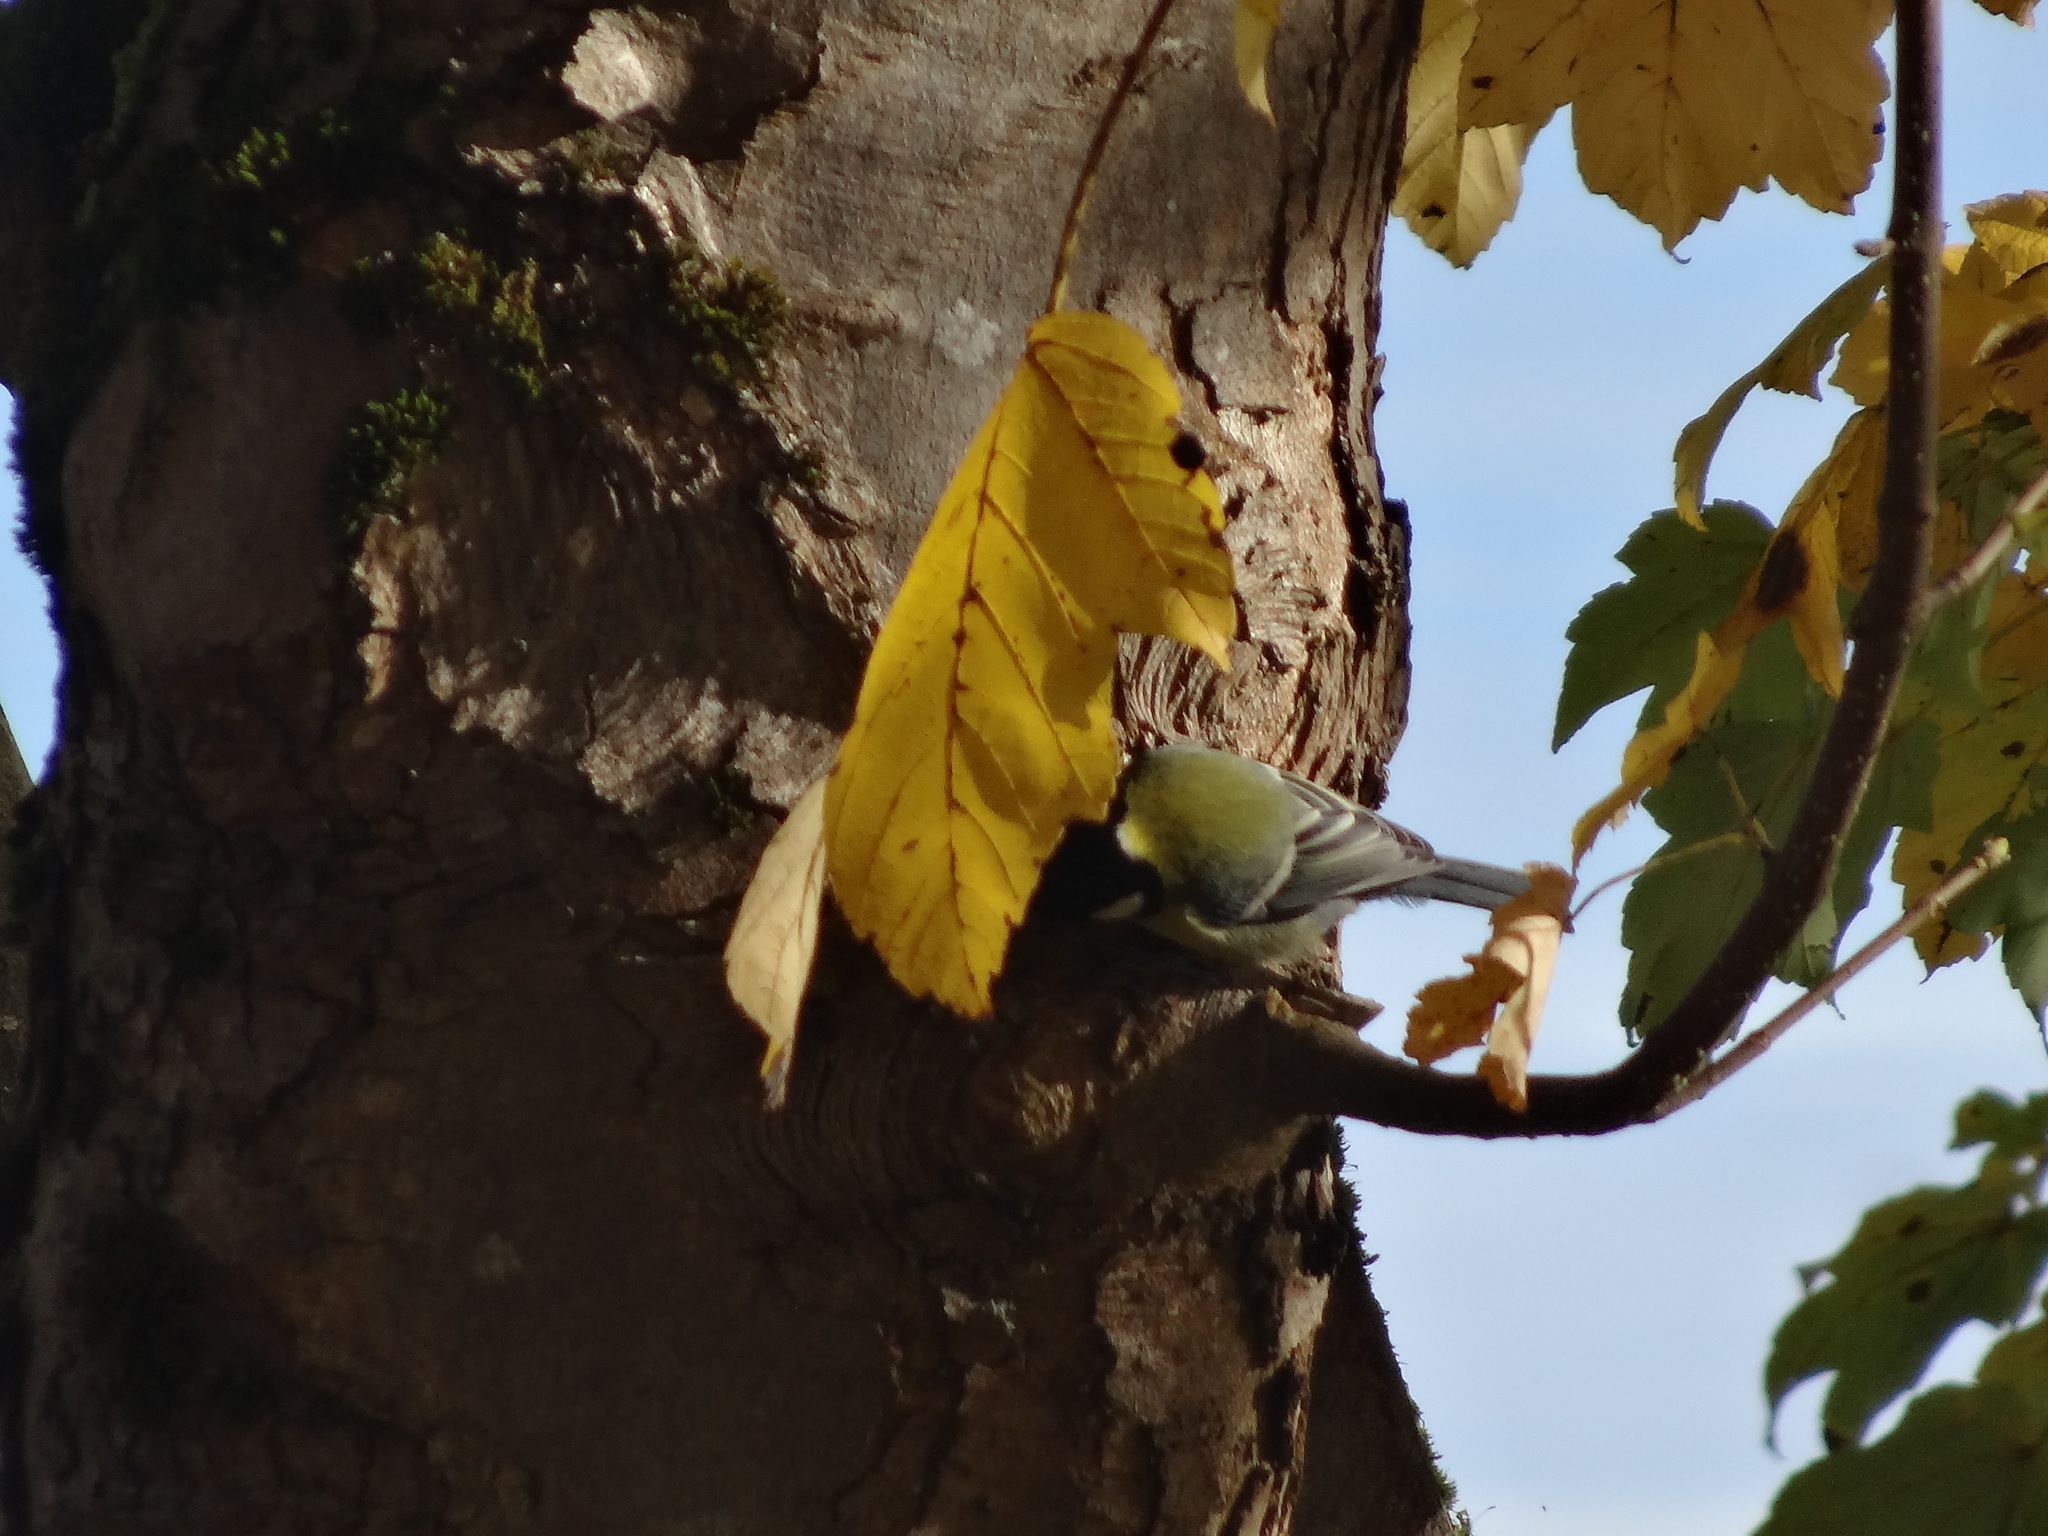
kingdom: Animalia
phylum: Chordata
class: Aves
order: Passeriformes
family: Paridae
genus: Parus
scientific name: Parus major
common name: Great tit
